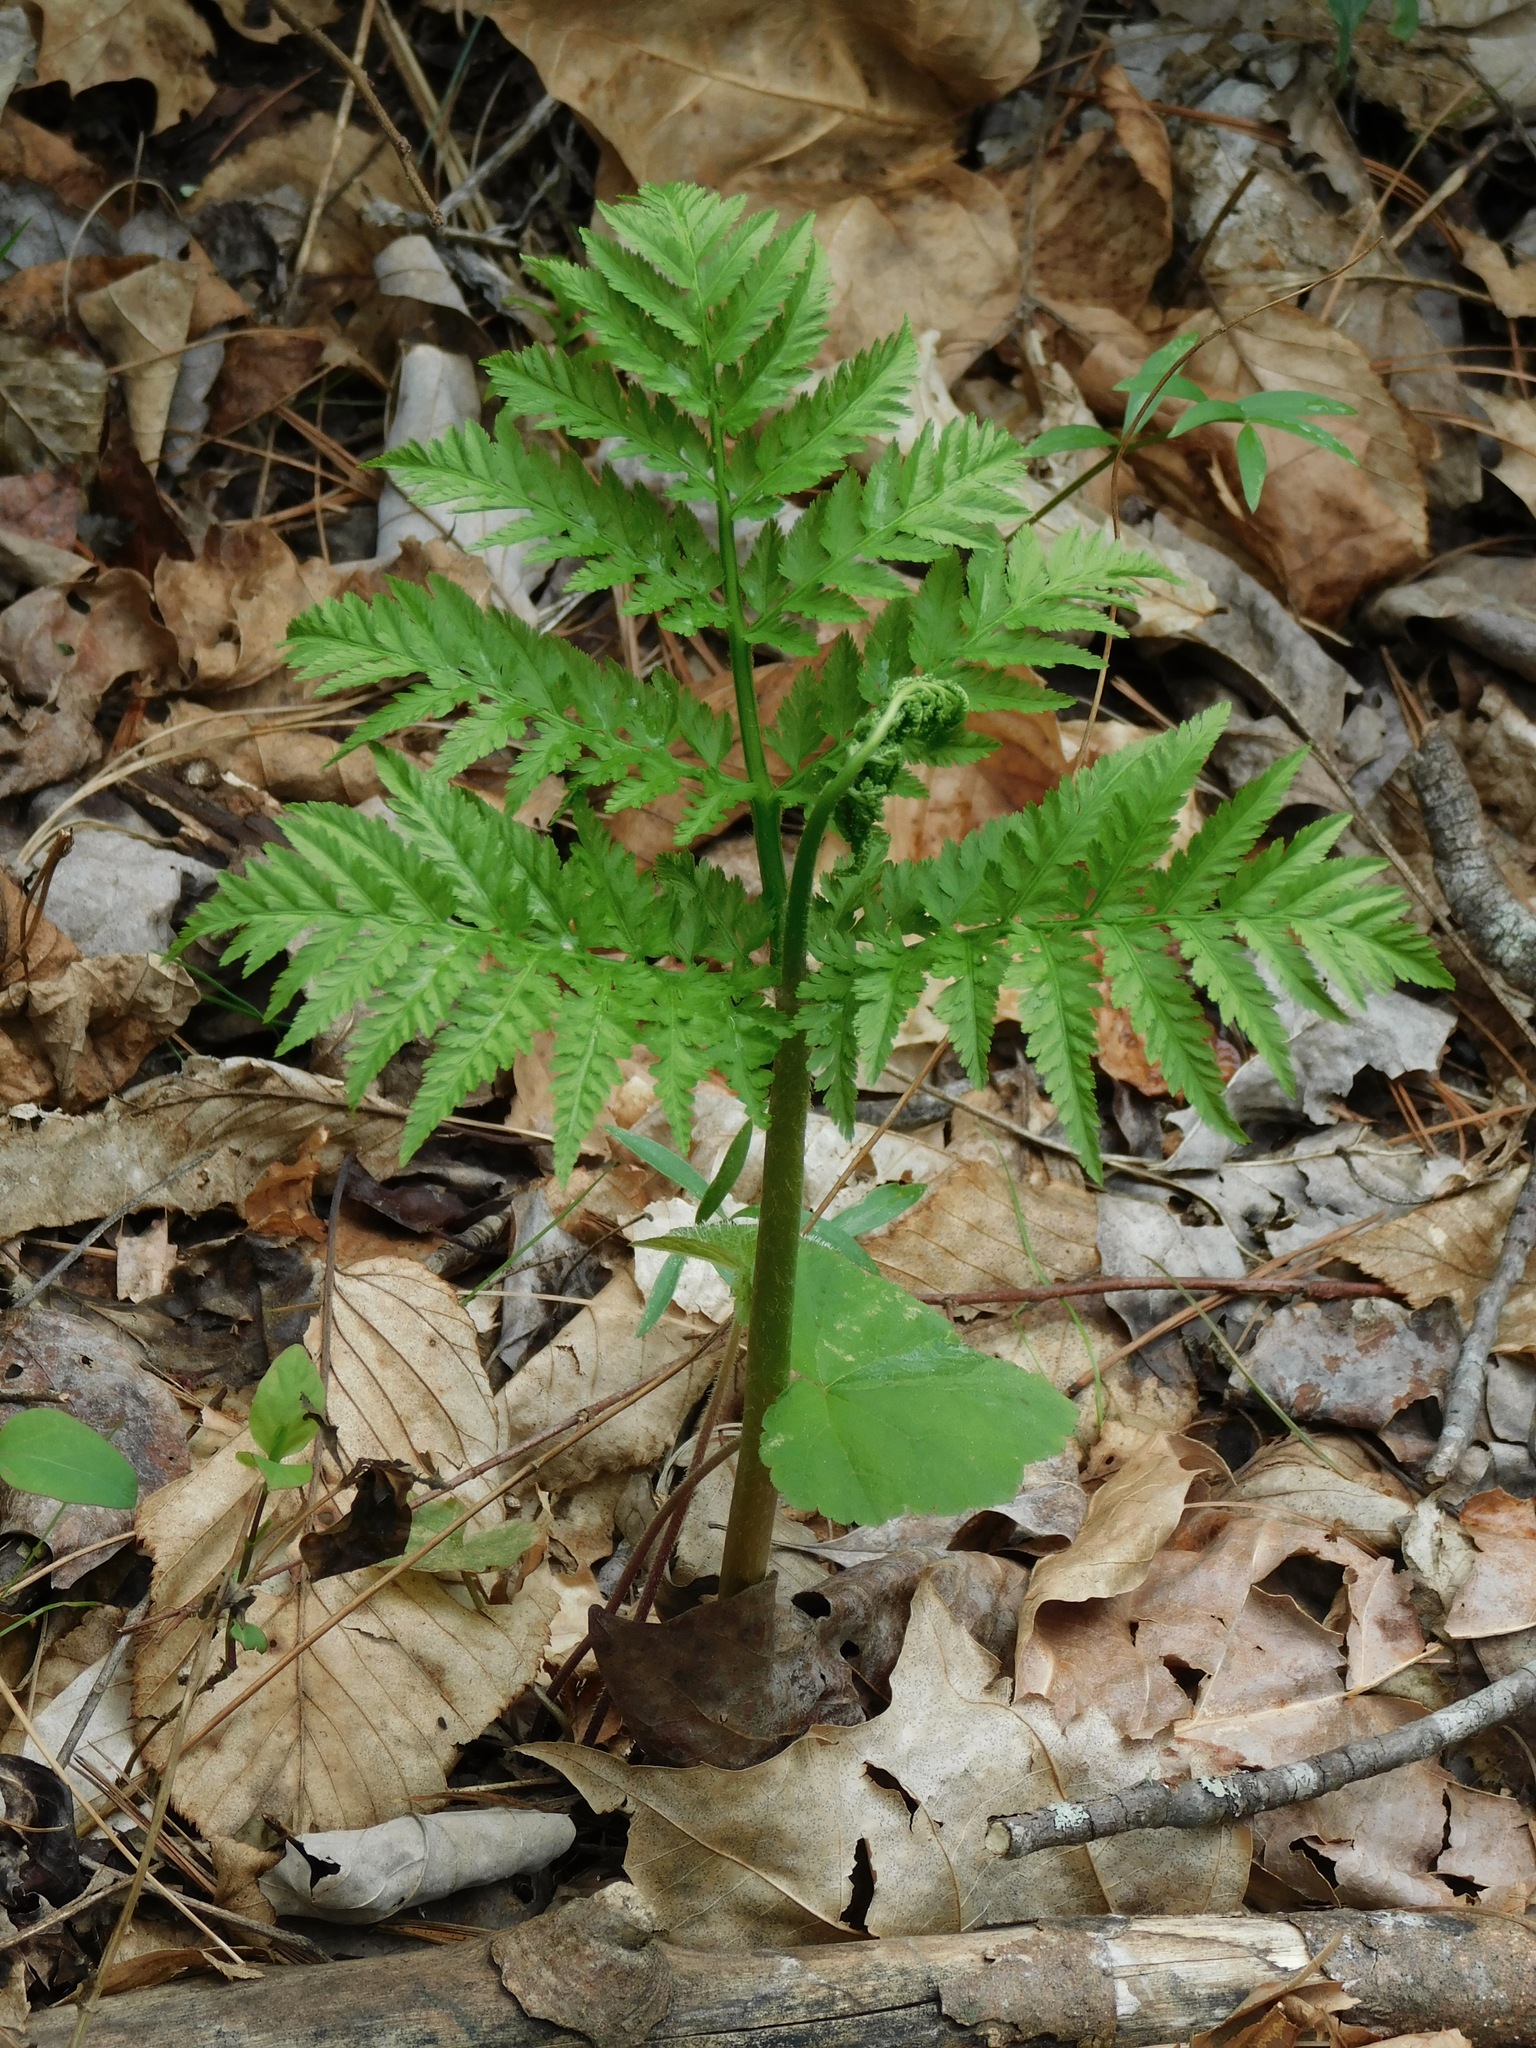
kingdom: Plantae
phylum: Tracheophyta
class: Polypodiopsida
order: Ophioglossales
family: Ophioglossaceae
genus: Botrypus
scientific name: Botrypus virginianus
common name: Common grapefern
